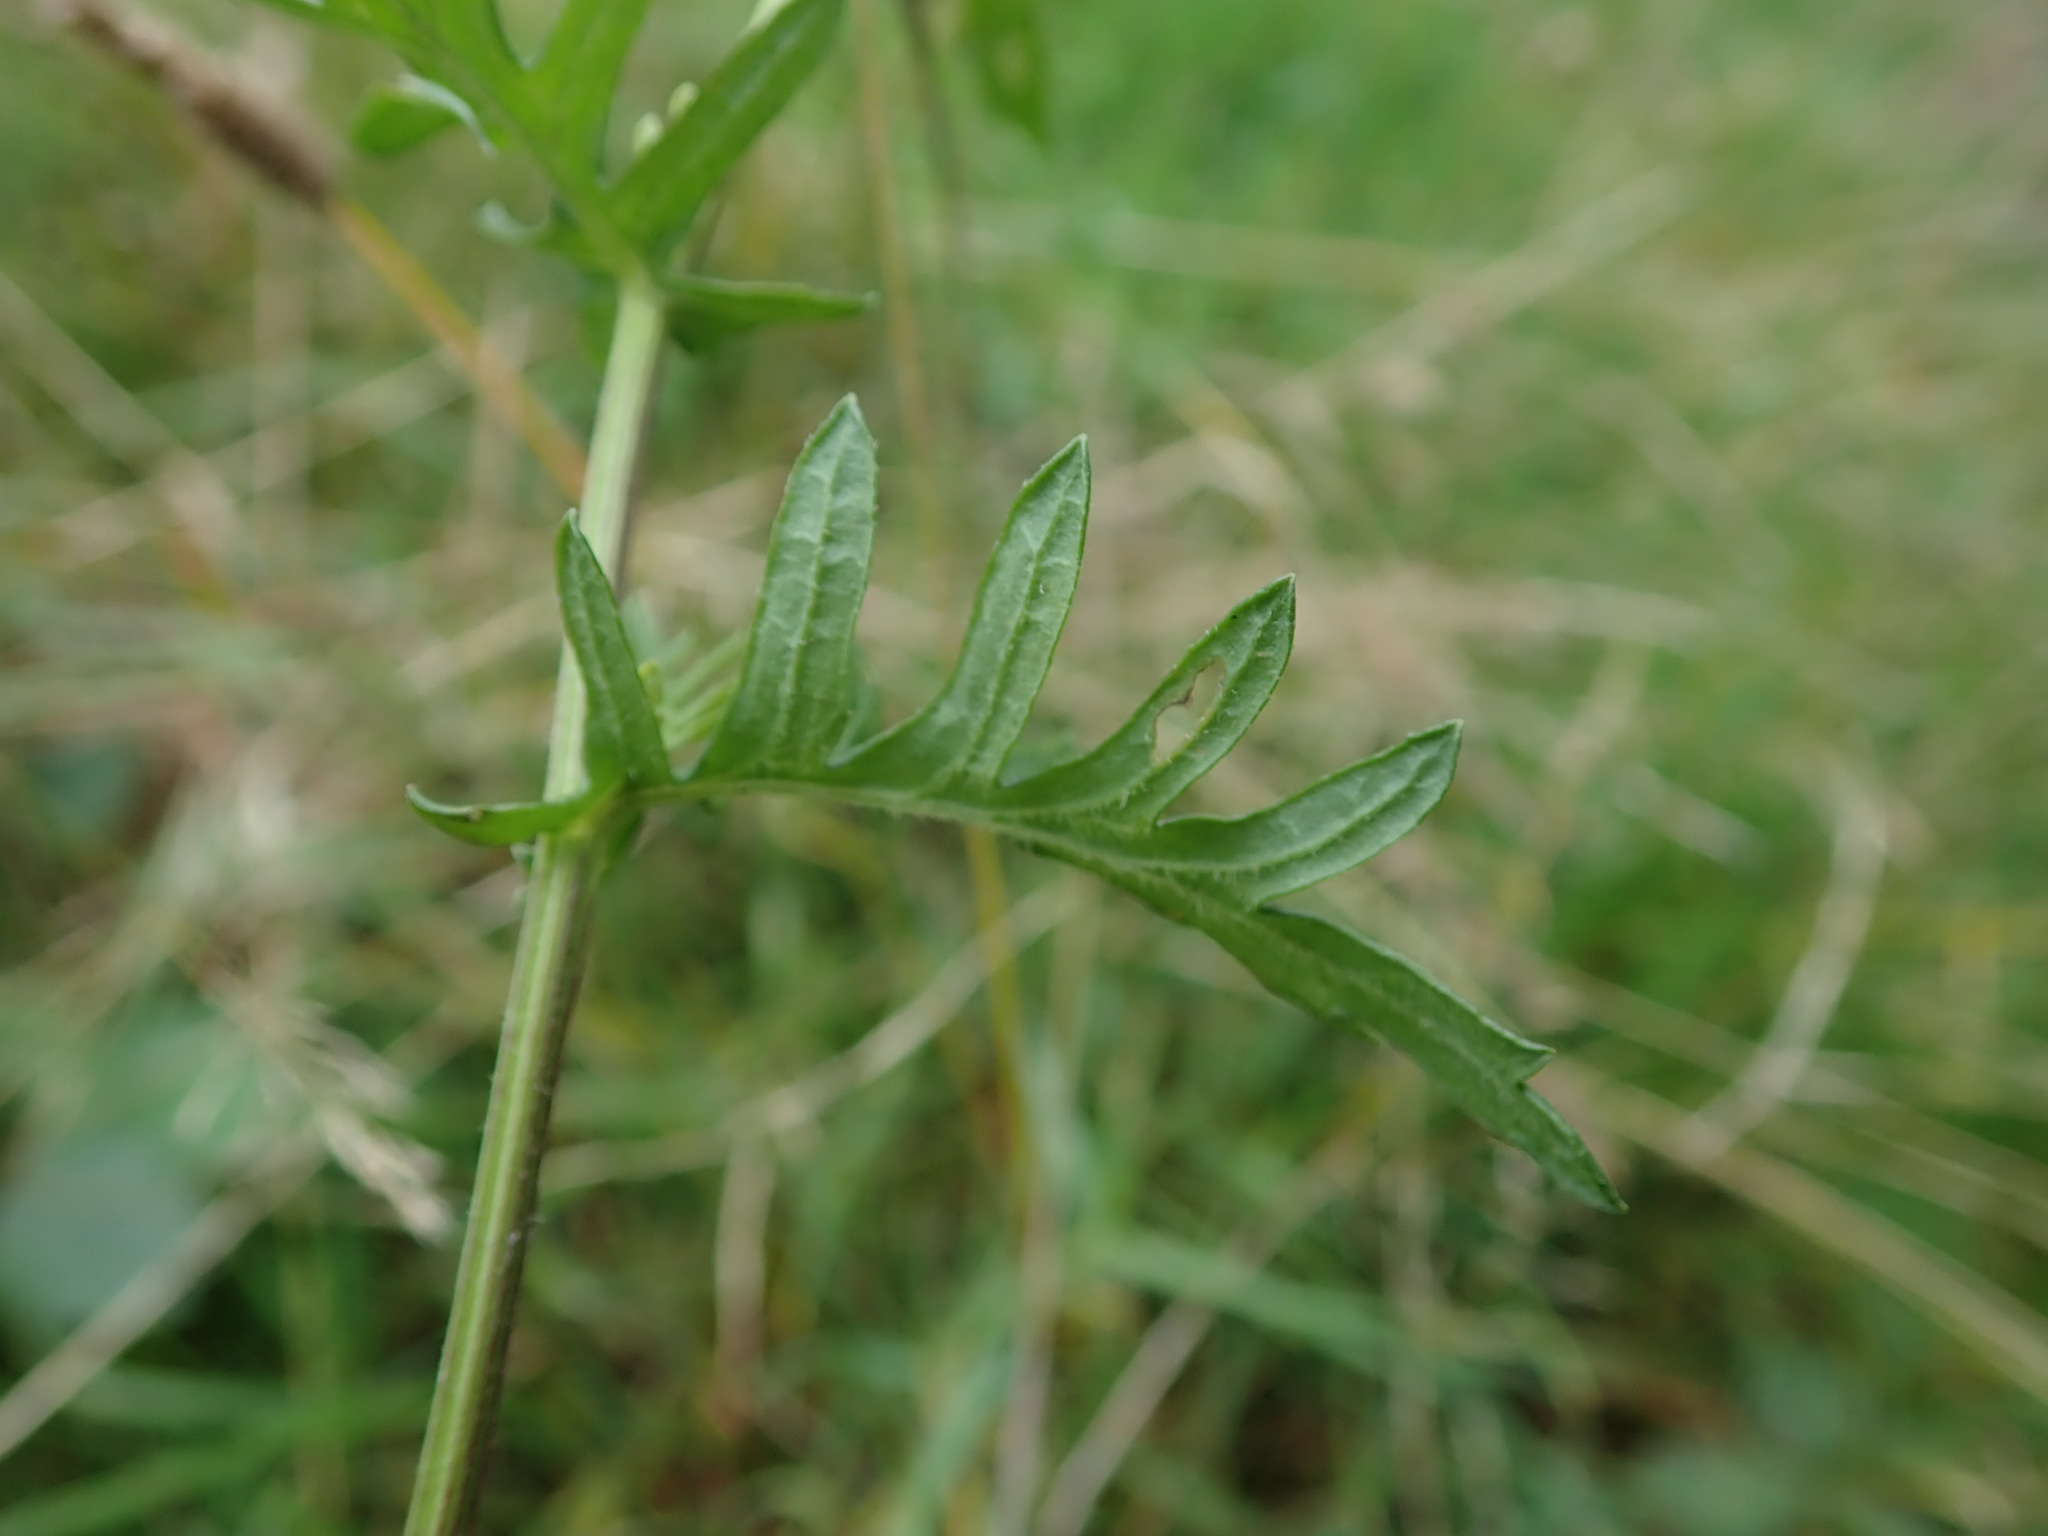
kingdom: Plantae
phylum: Tracheophyta
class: Magnoliopsida
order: Asterales
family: Asteraceae
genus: Jacobaea
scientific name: Jacobaea erucifolia
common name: Hoary ragwort
